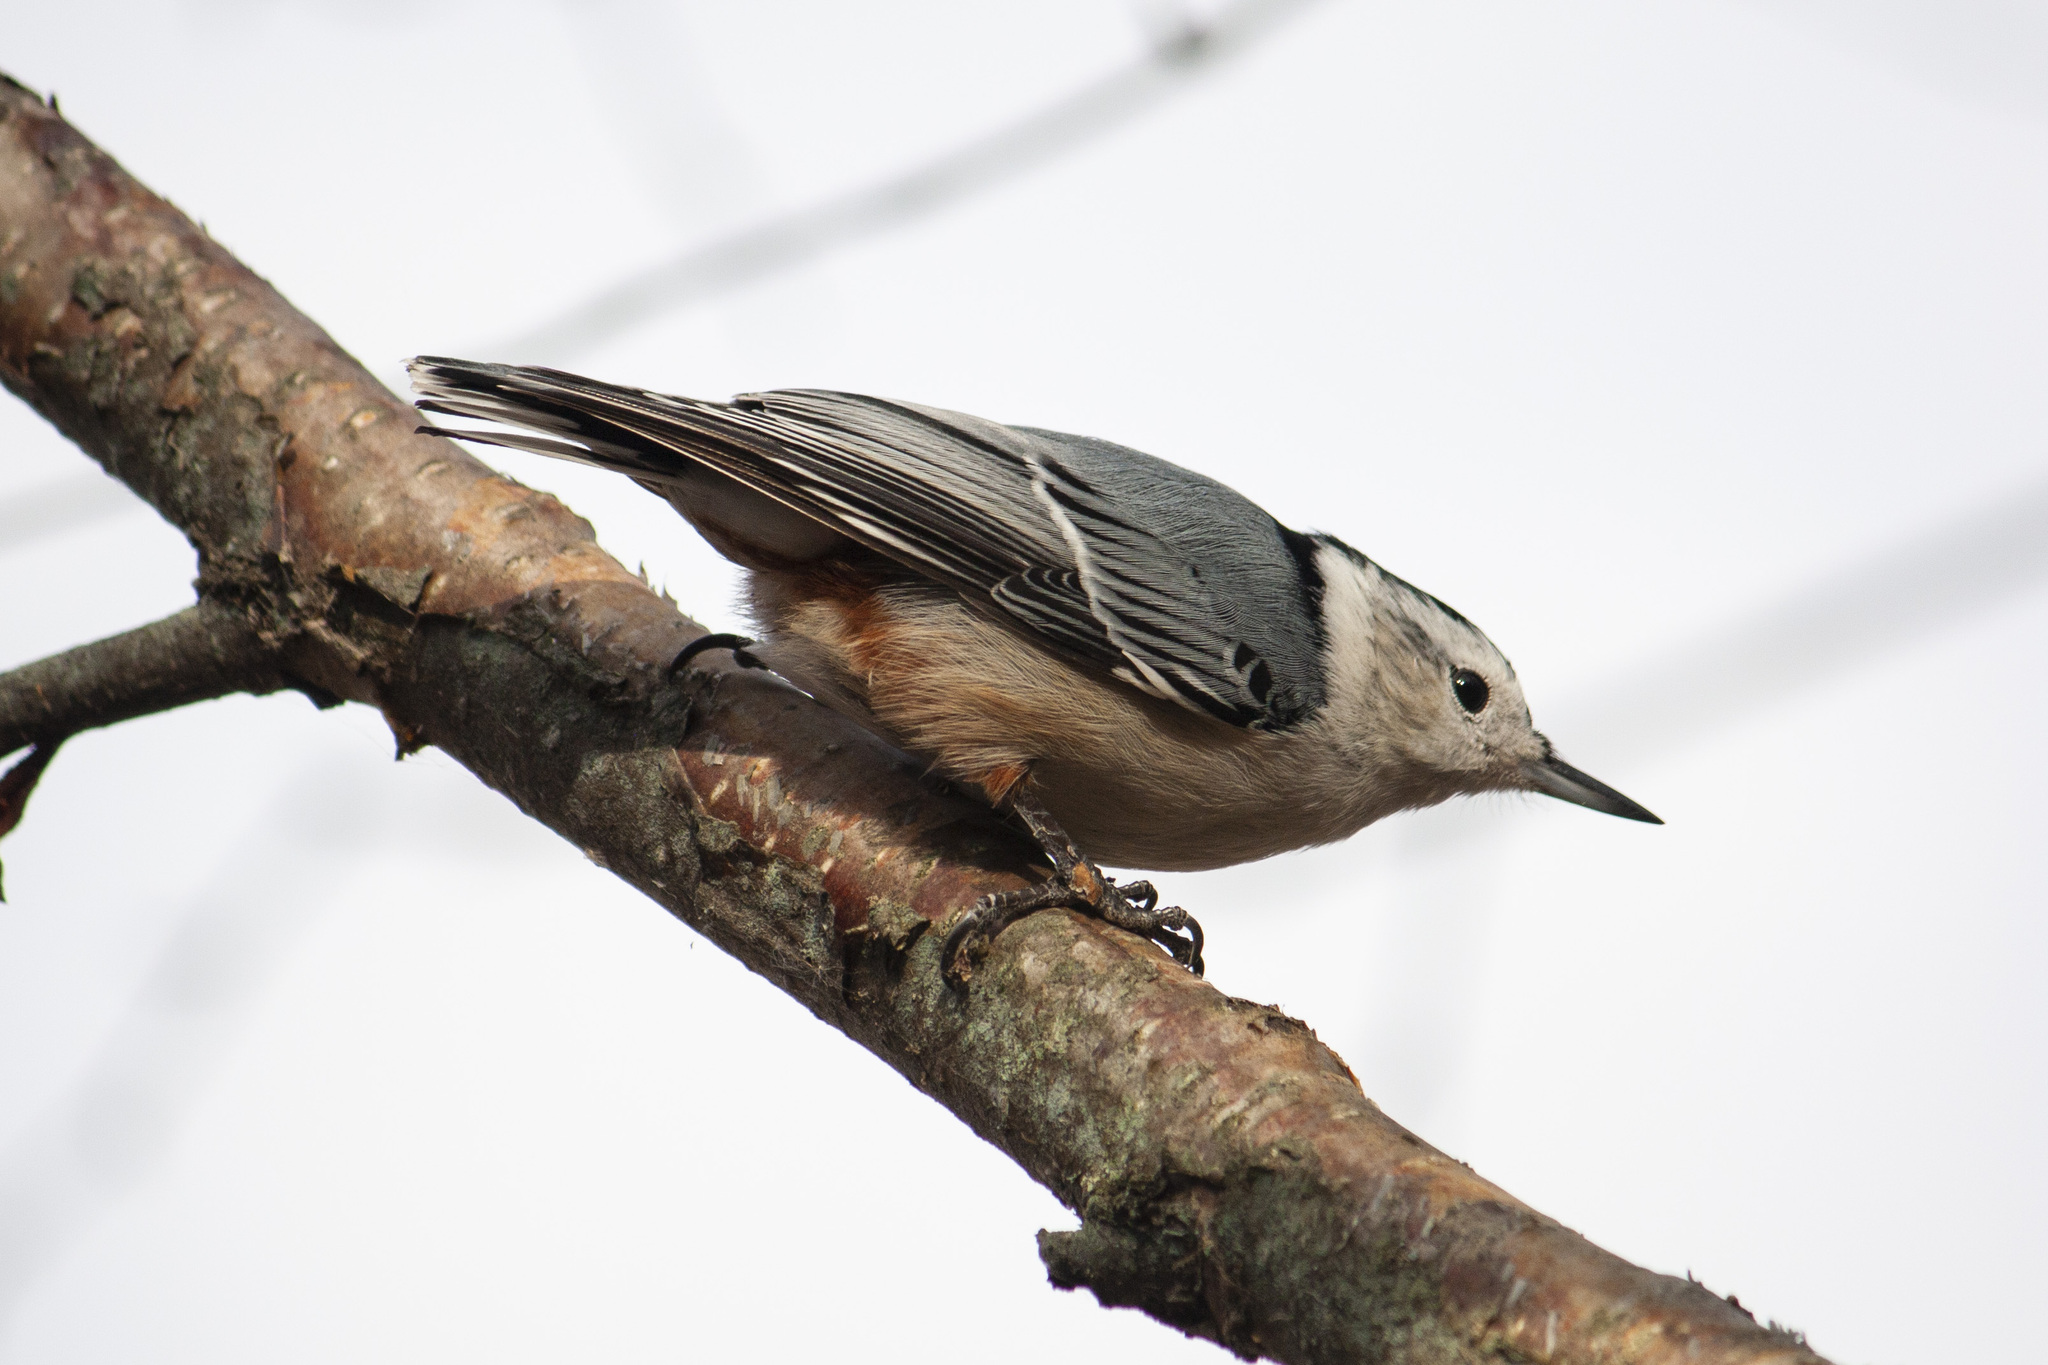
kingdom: Animalia
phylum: Chordata
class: Aves
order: Passeriformes
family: Sittidae
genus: Sitta
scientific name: Sitta carolinensis
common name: White-breasted nuthatch
